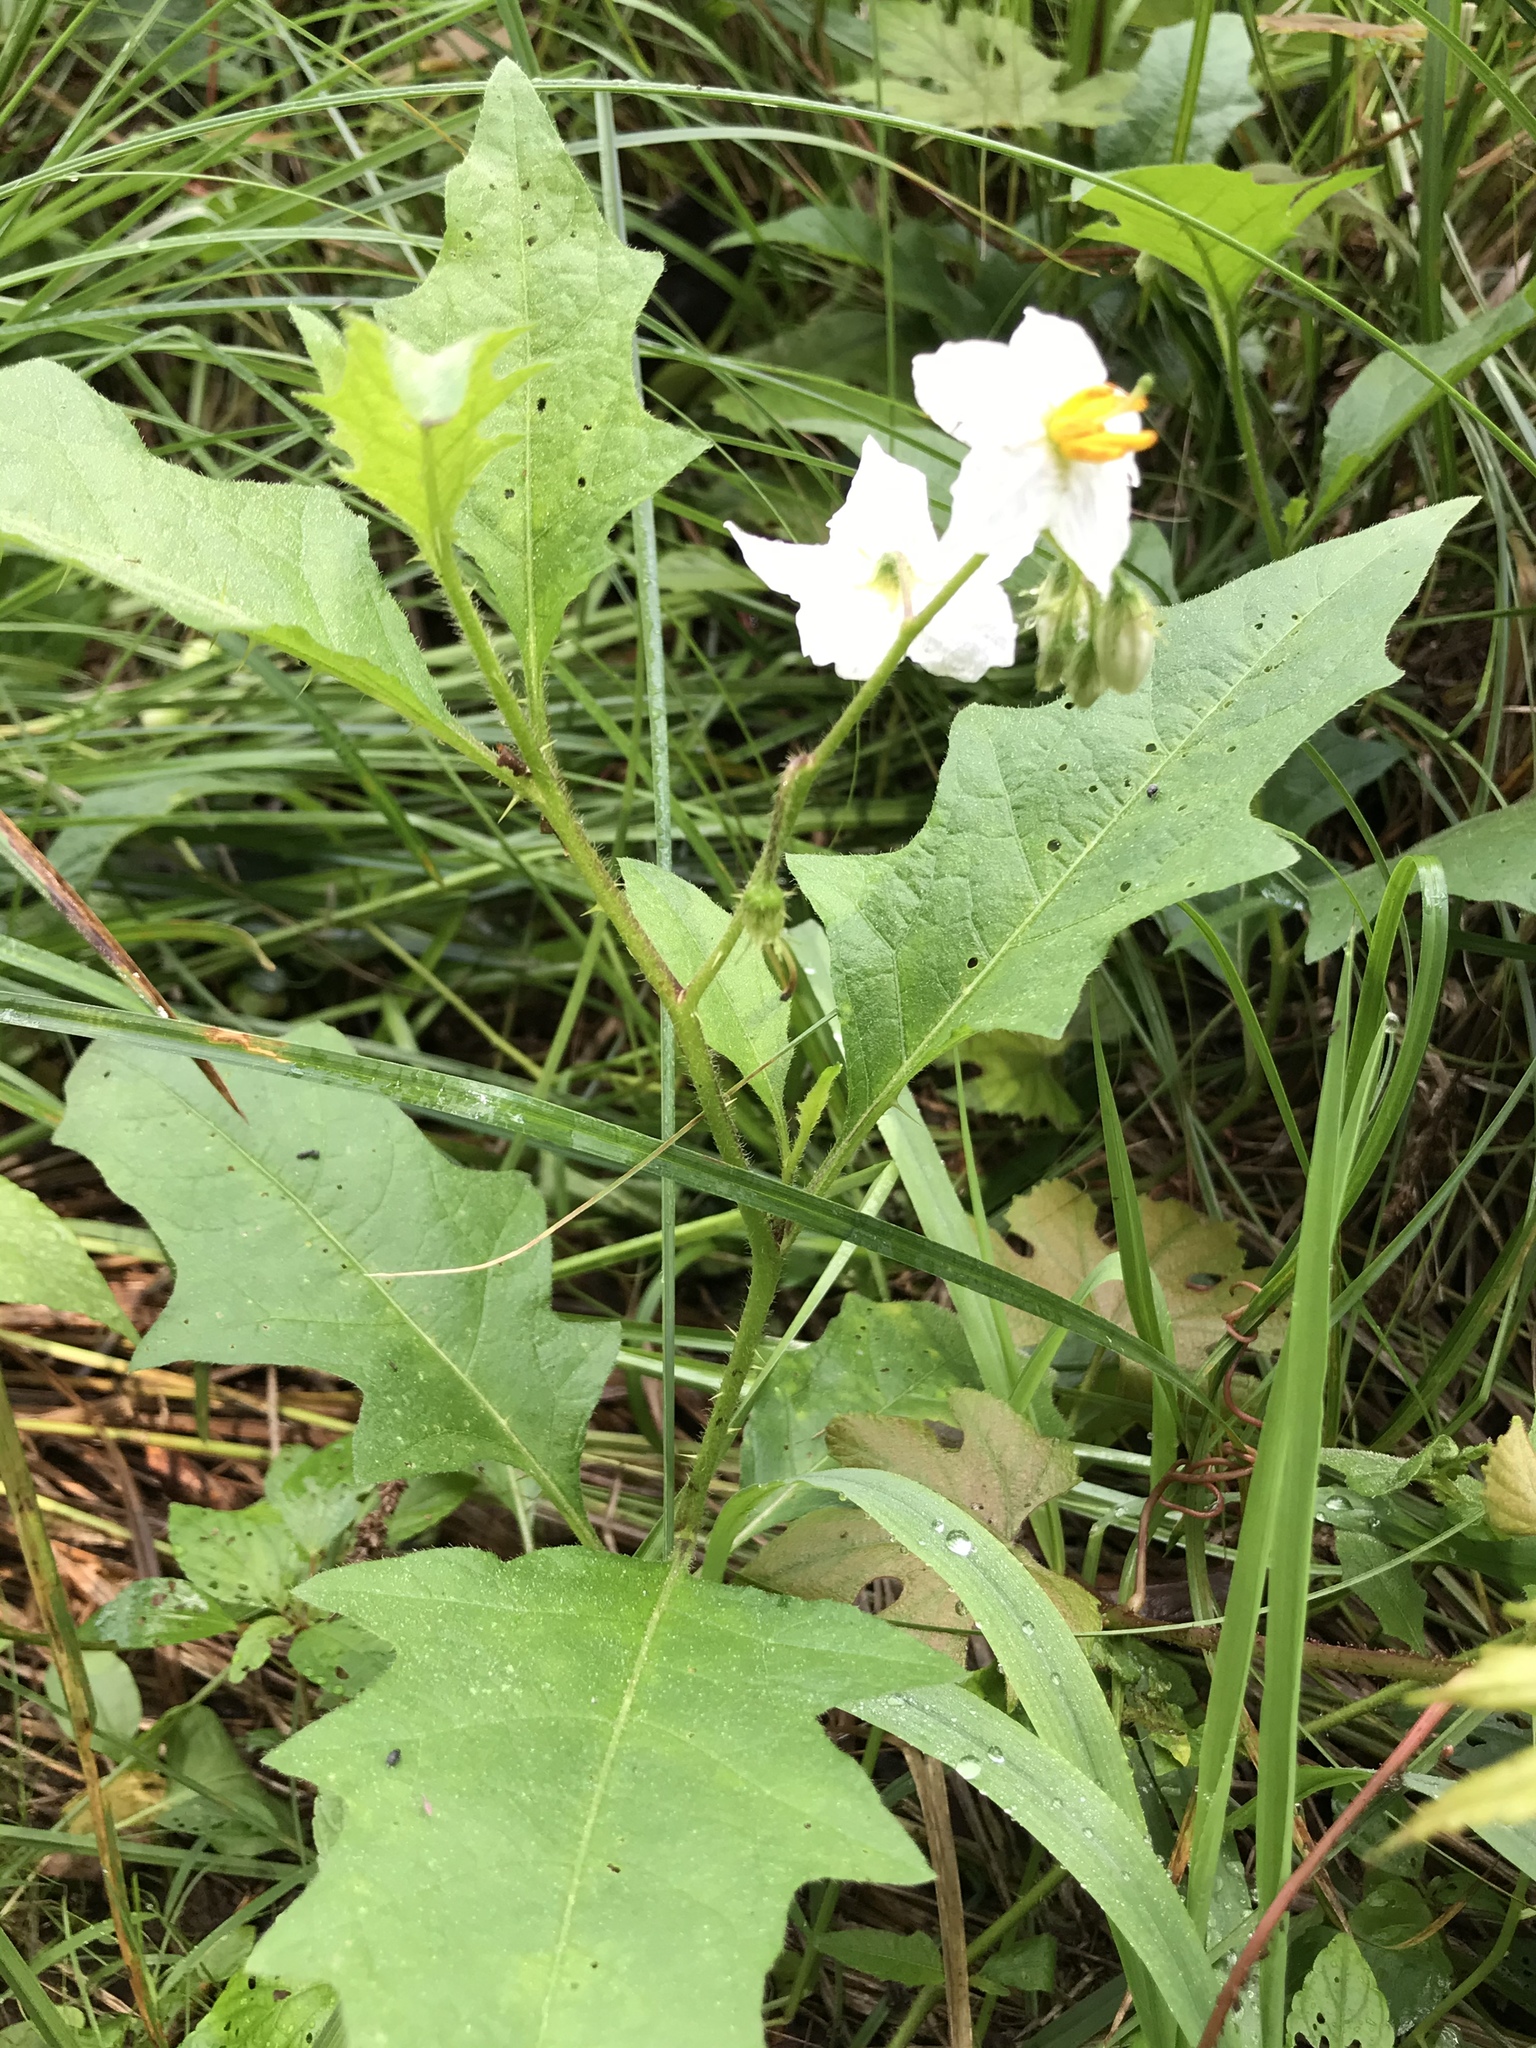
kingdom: Plantae
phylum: Tracheophyta
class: Magnoliopsida
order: Solanales
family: Solanaceae
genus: Solanum
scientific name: Solanum carolinense
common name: Horse-nettle
